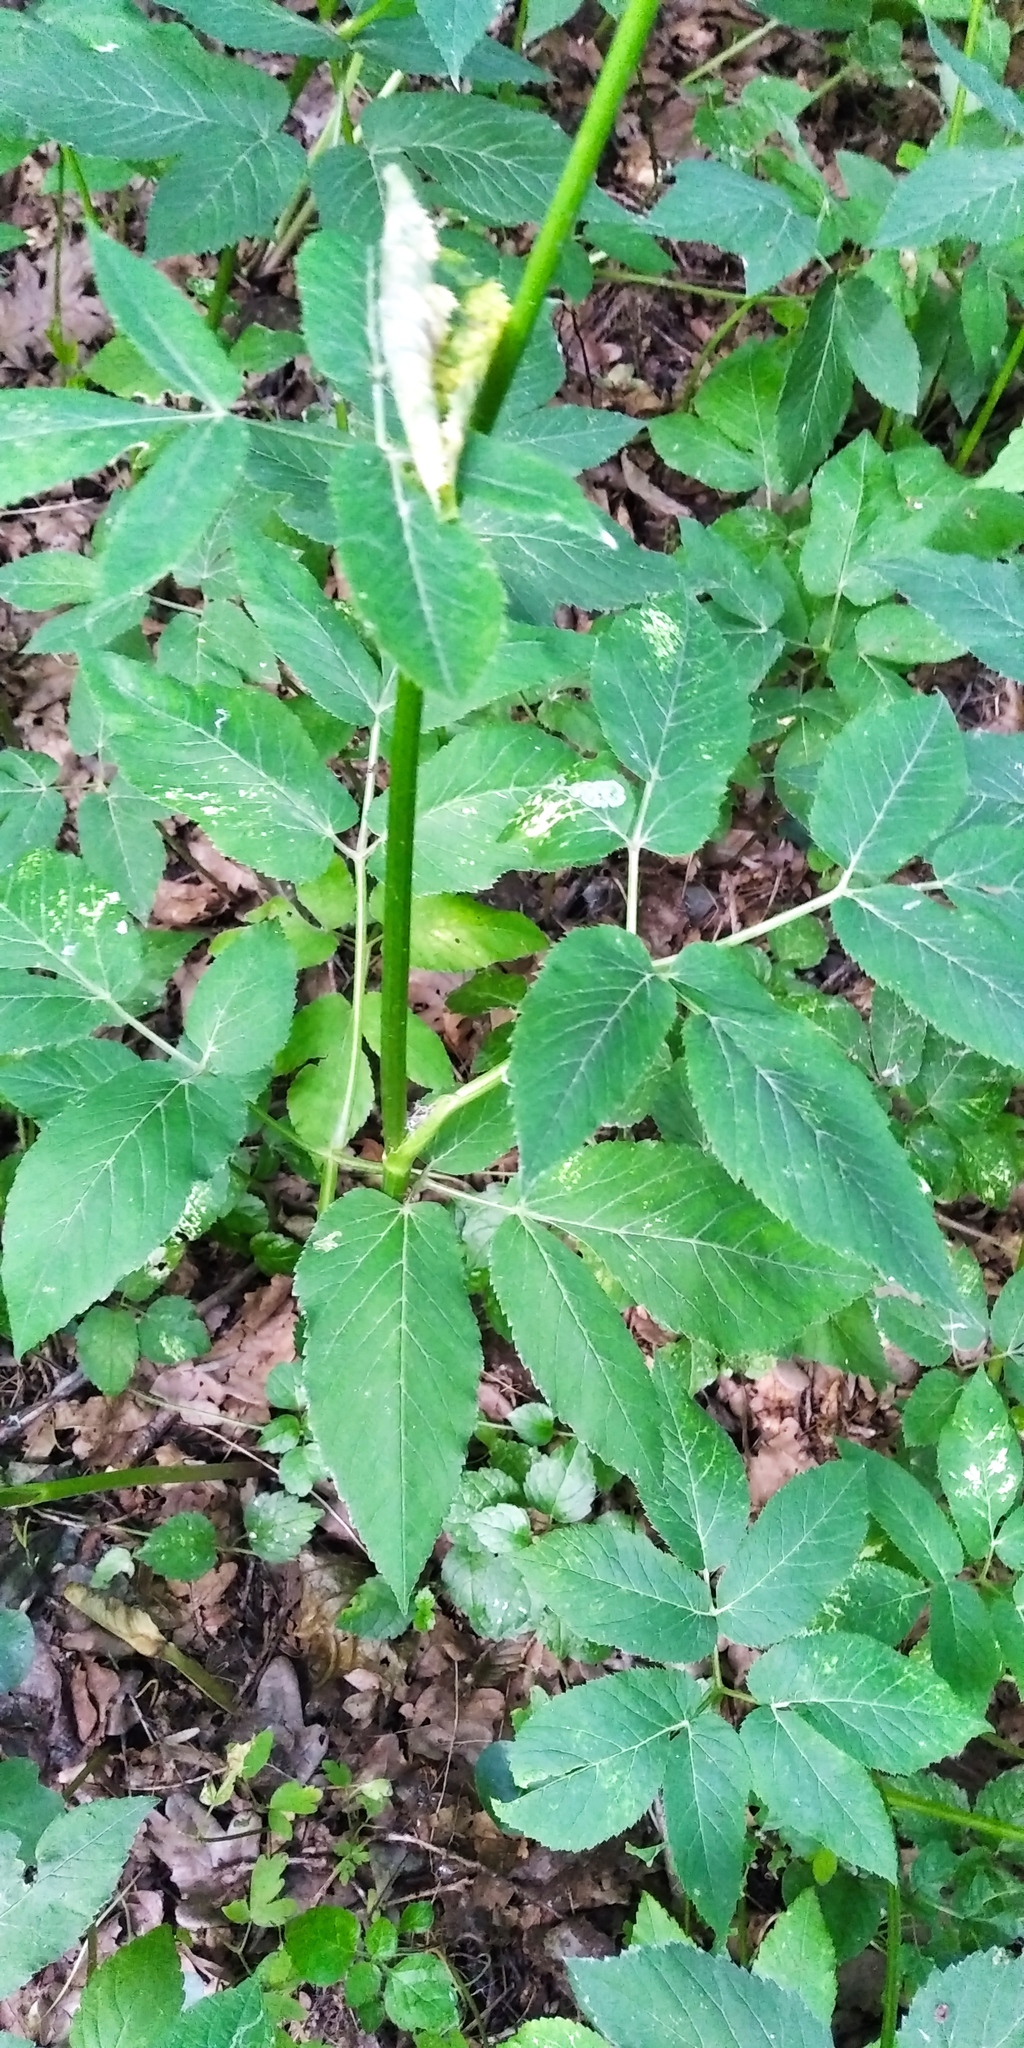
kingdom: Plantae
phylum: Tracheophyta
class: Magnoliopsida
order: Apiales
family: Apiaceae
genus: Aegopodium
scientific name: Aegopodium podagraria
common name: Ground-elder
